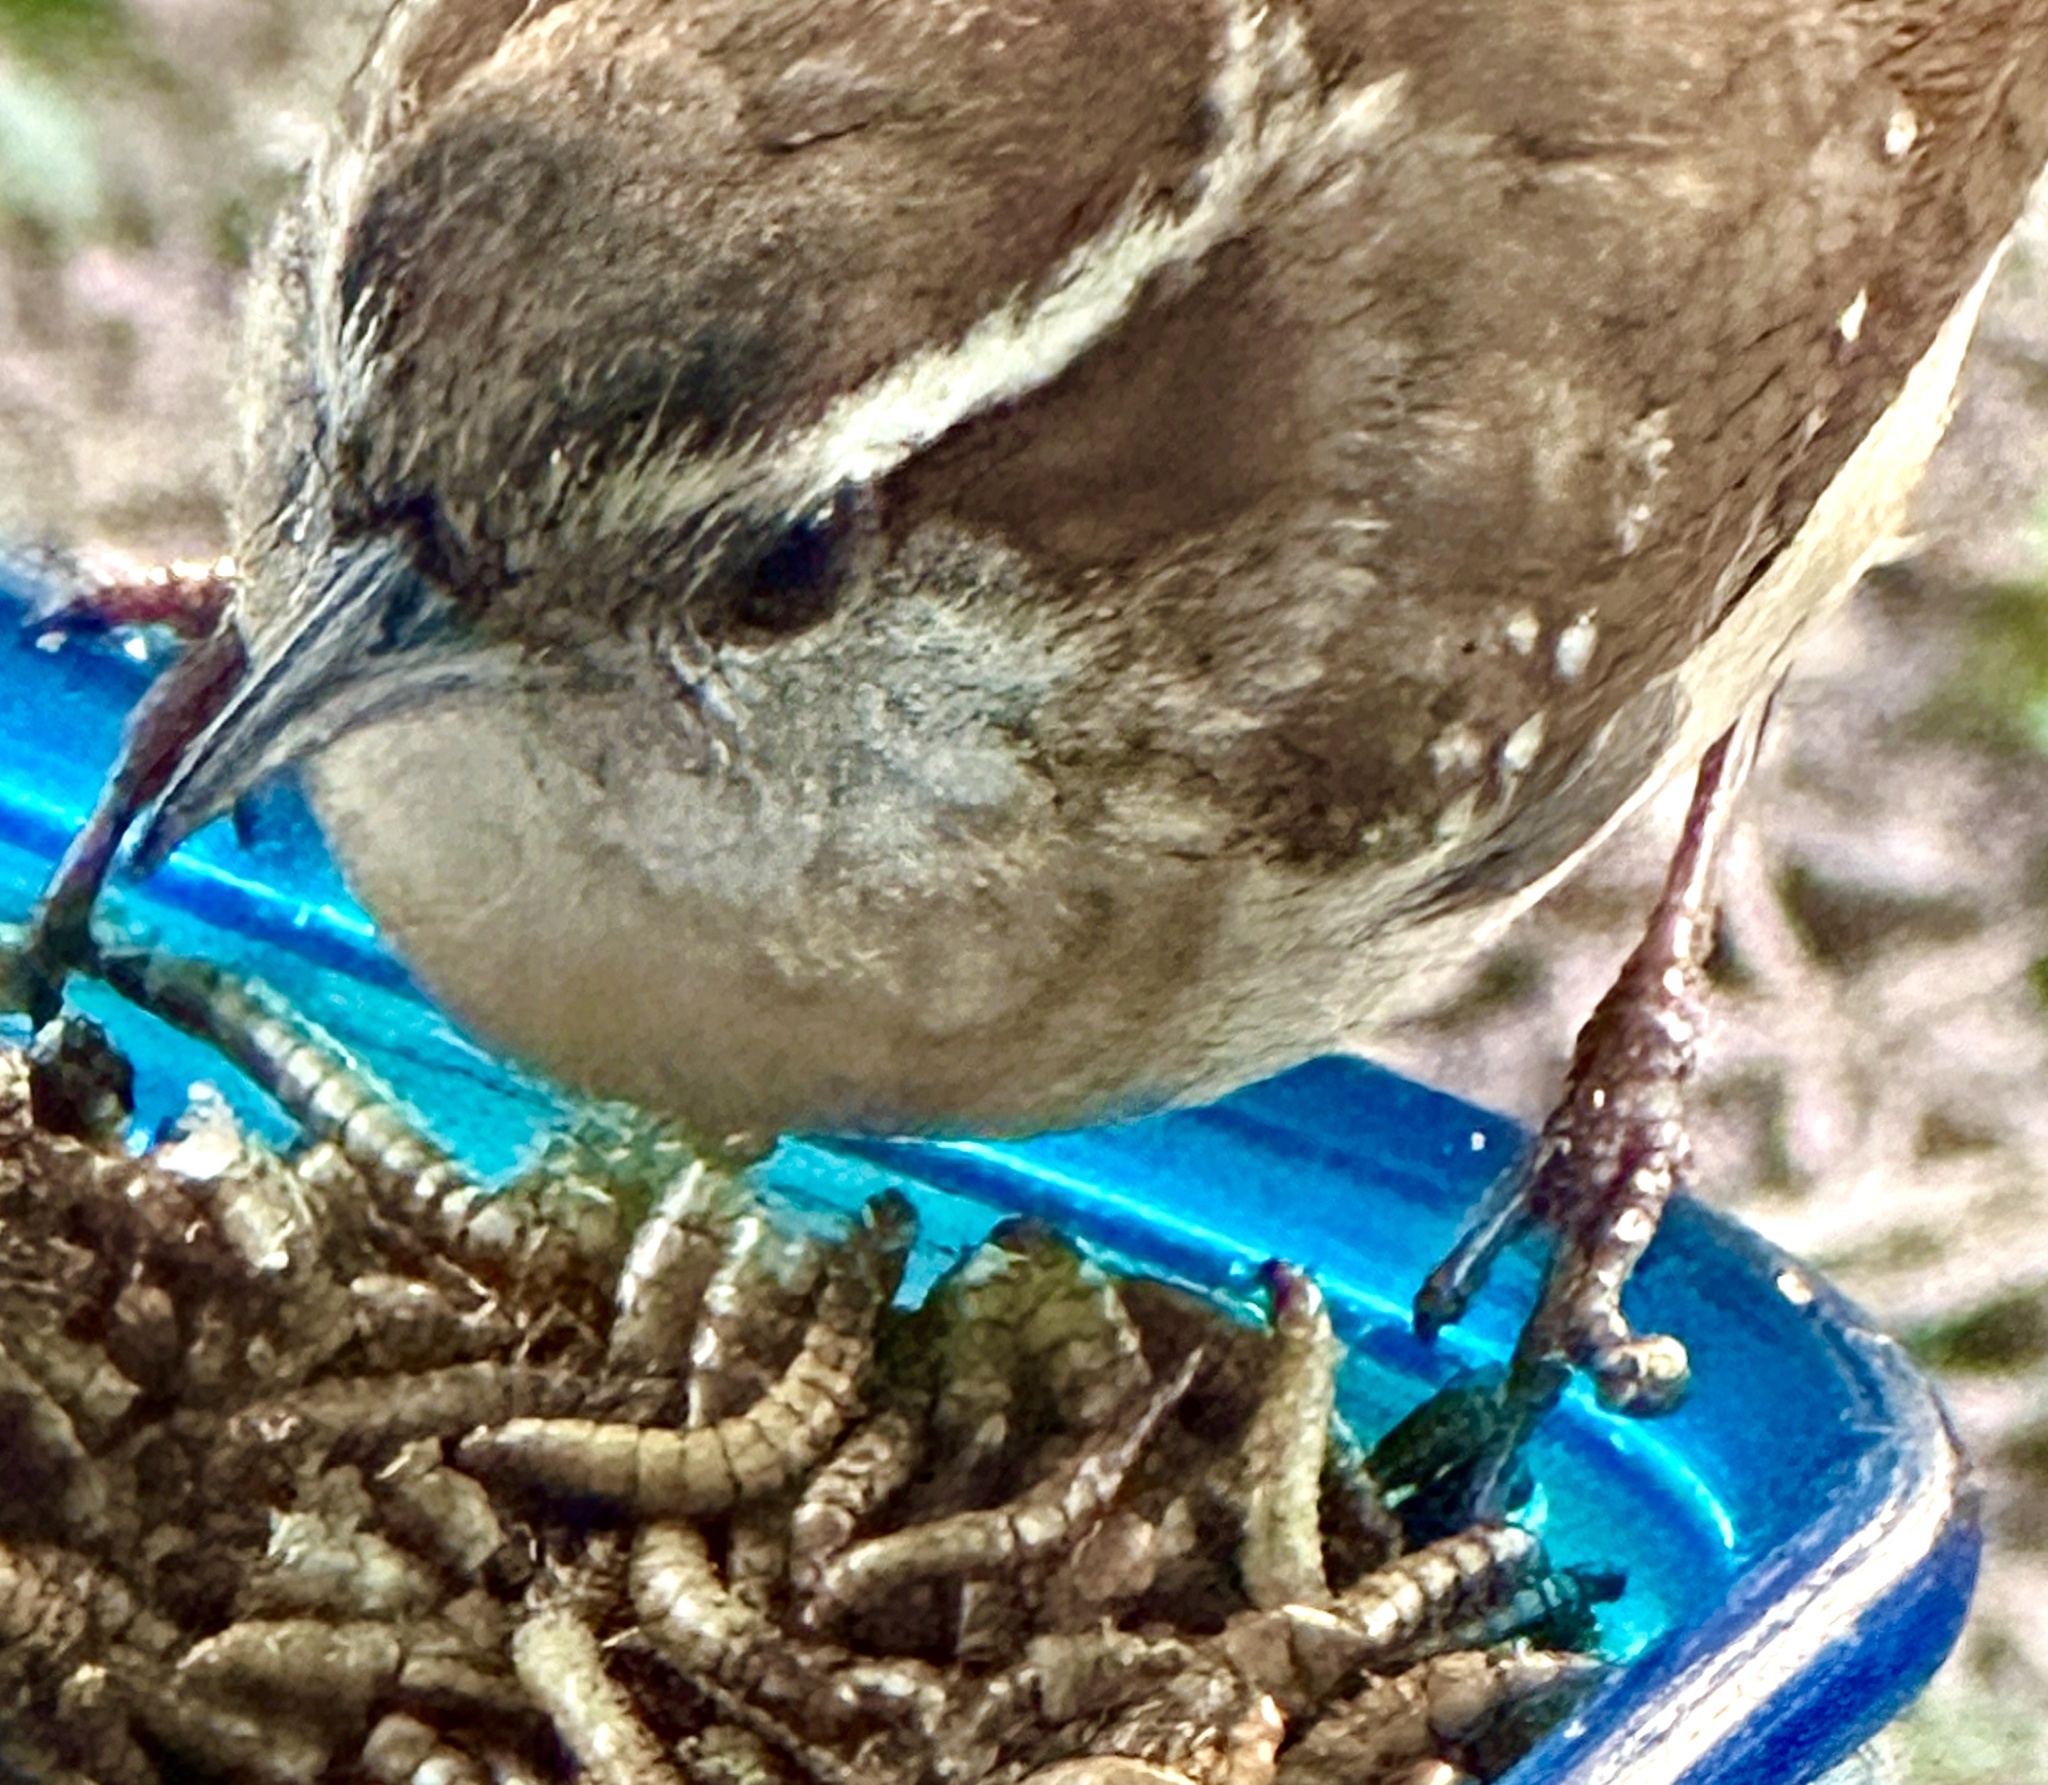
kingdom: Animalia
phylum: Chordata
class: Aves
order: Passeriformes
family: Troglodytidae
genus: Thryothorus
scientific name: Thryothorus ludovicianus
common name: Carolina wren
